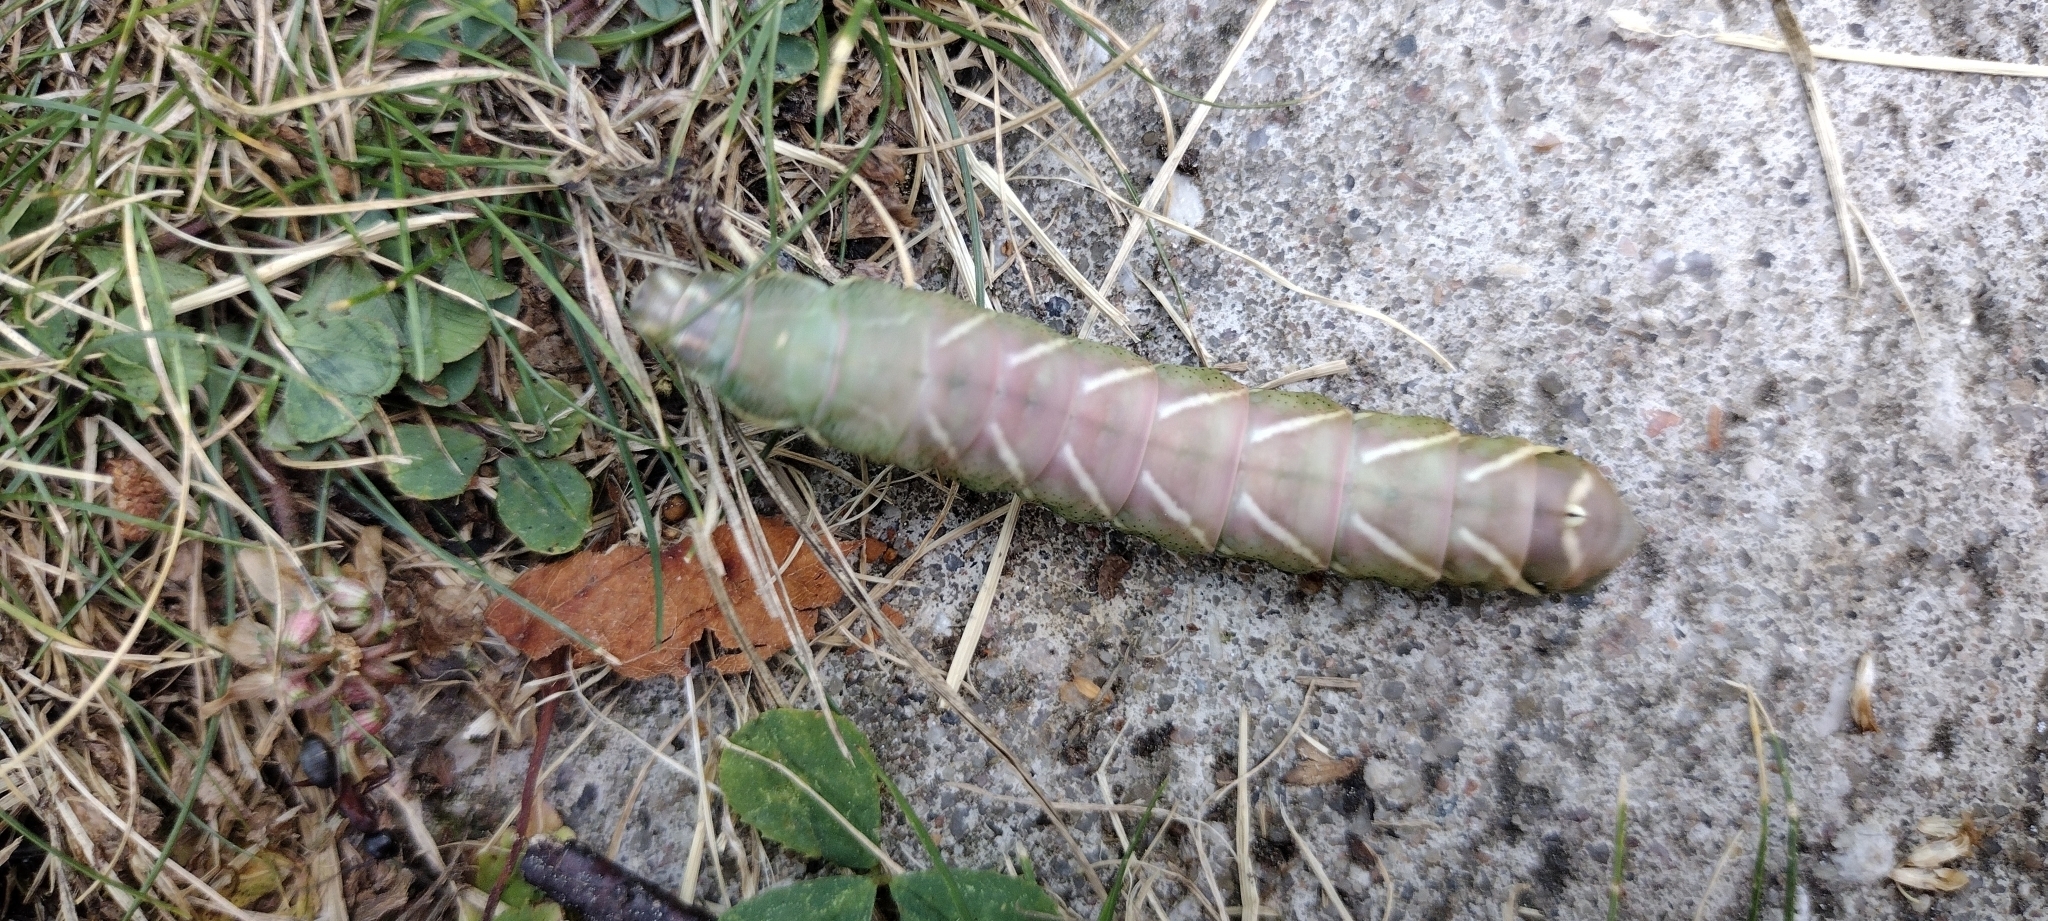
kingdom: Animalia
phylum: Arthropoda
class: Insecta
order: Lepidoptera
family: Endromidae
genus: Endromis
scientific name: Endromis versicolora
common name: Kentish glory
